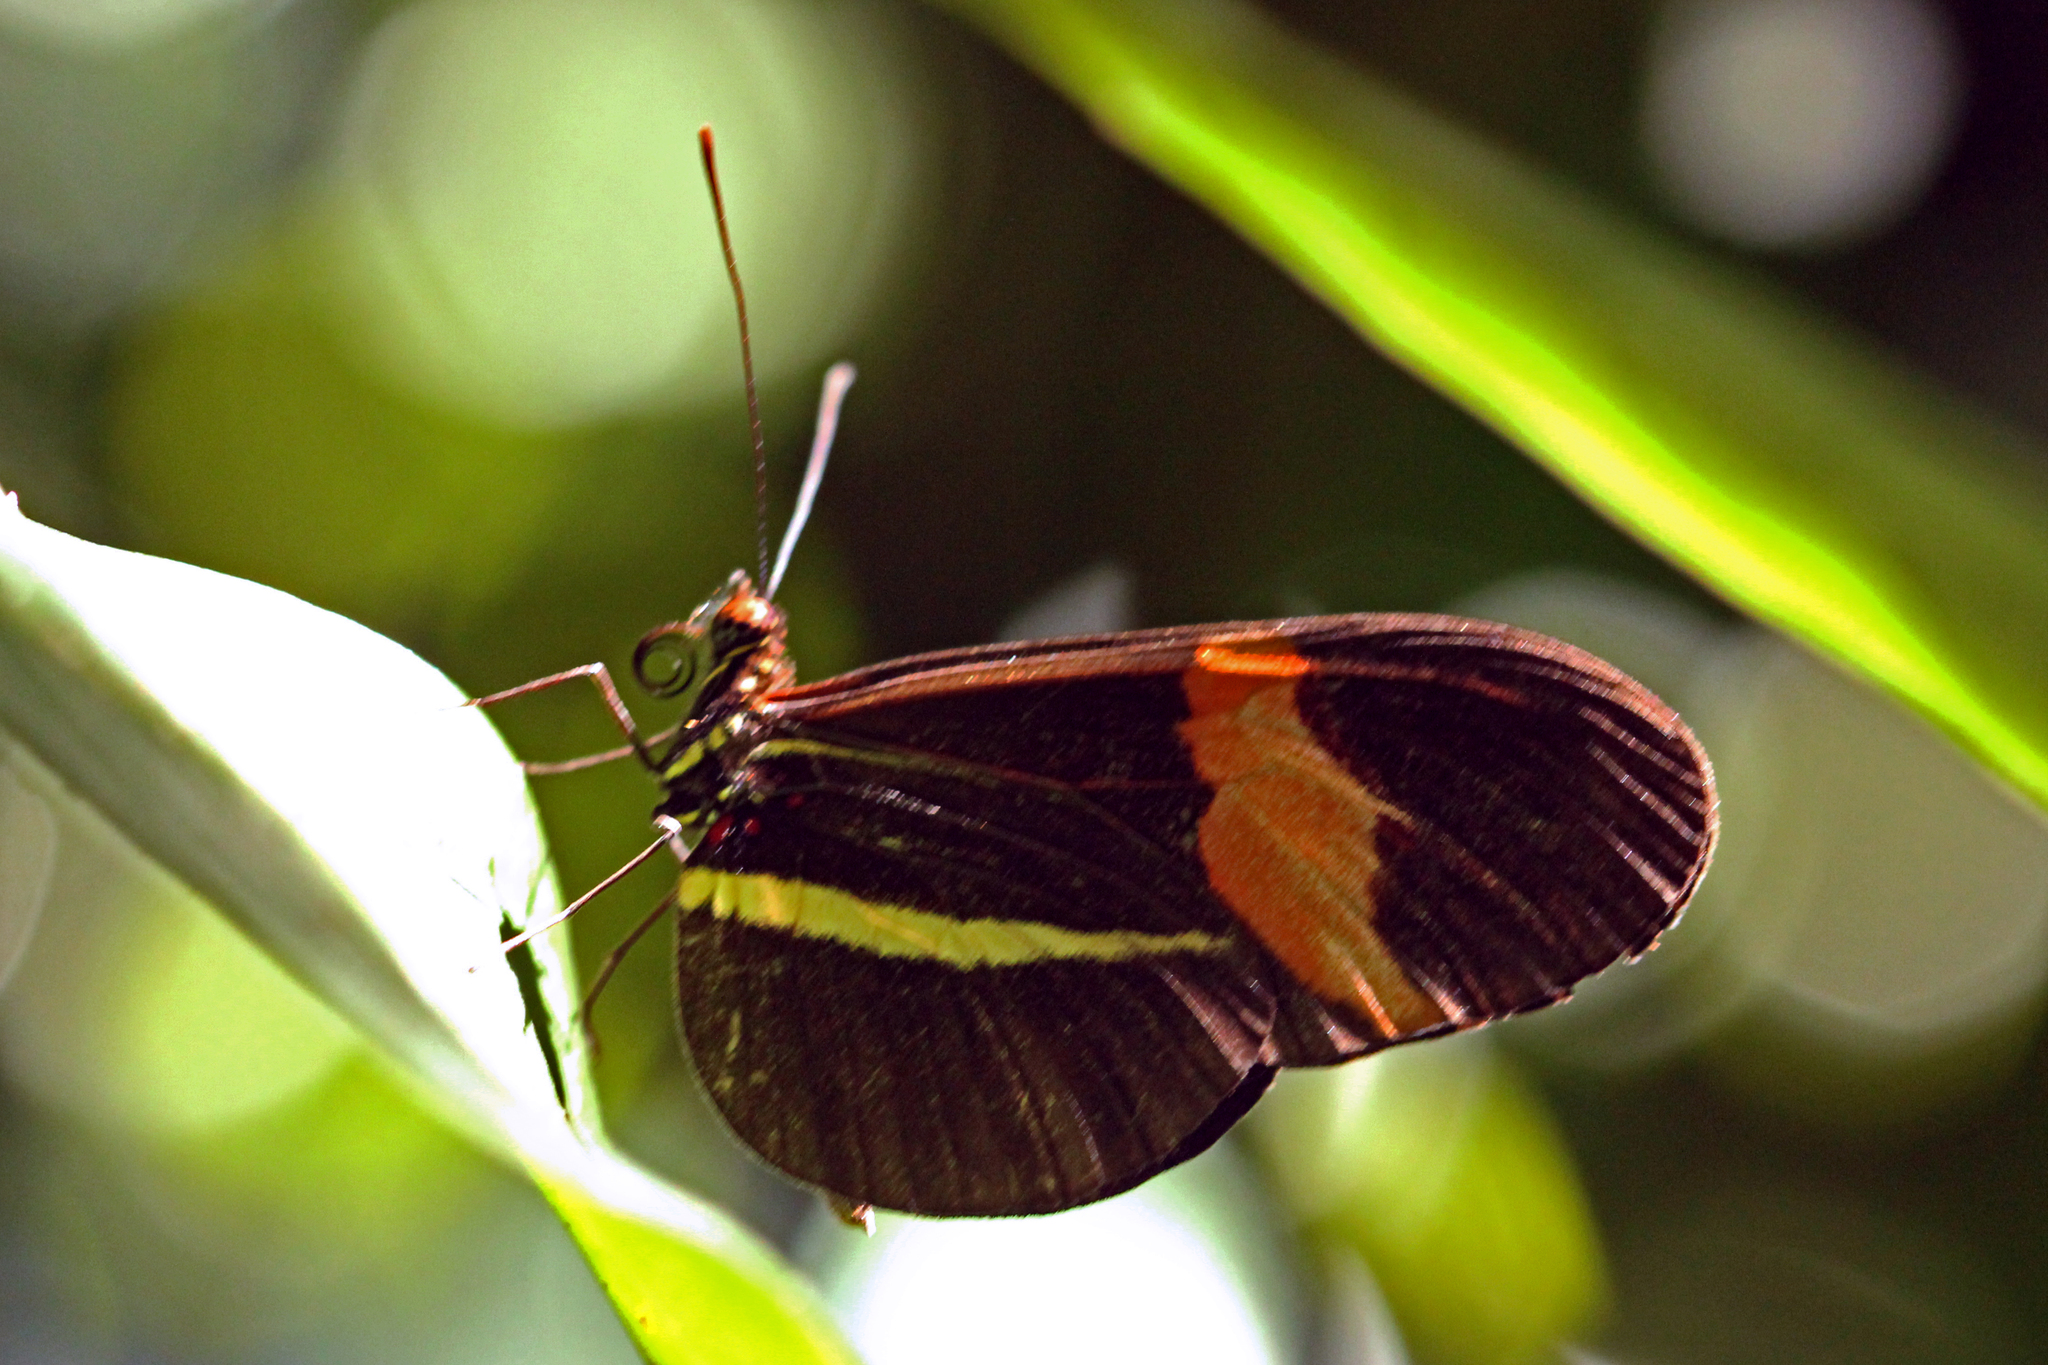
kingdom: Animalia
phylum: Arthropoda
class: Insecta
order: Lepidoptera
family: Nymphalidae
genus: Heliconius
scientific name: Heliconius erato
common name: Common patch longwing
